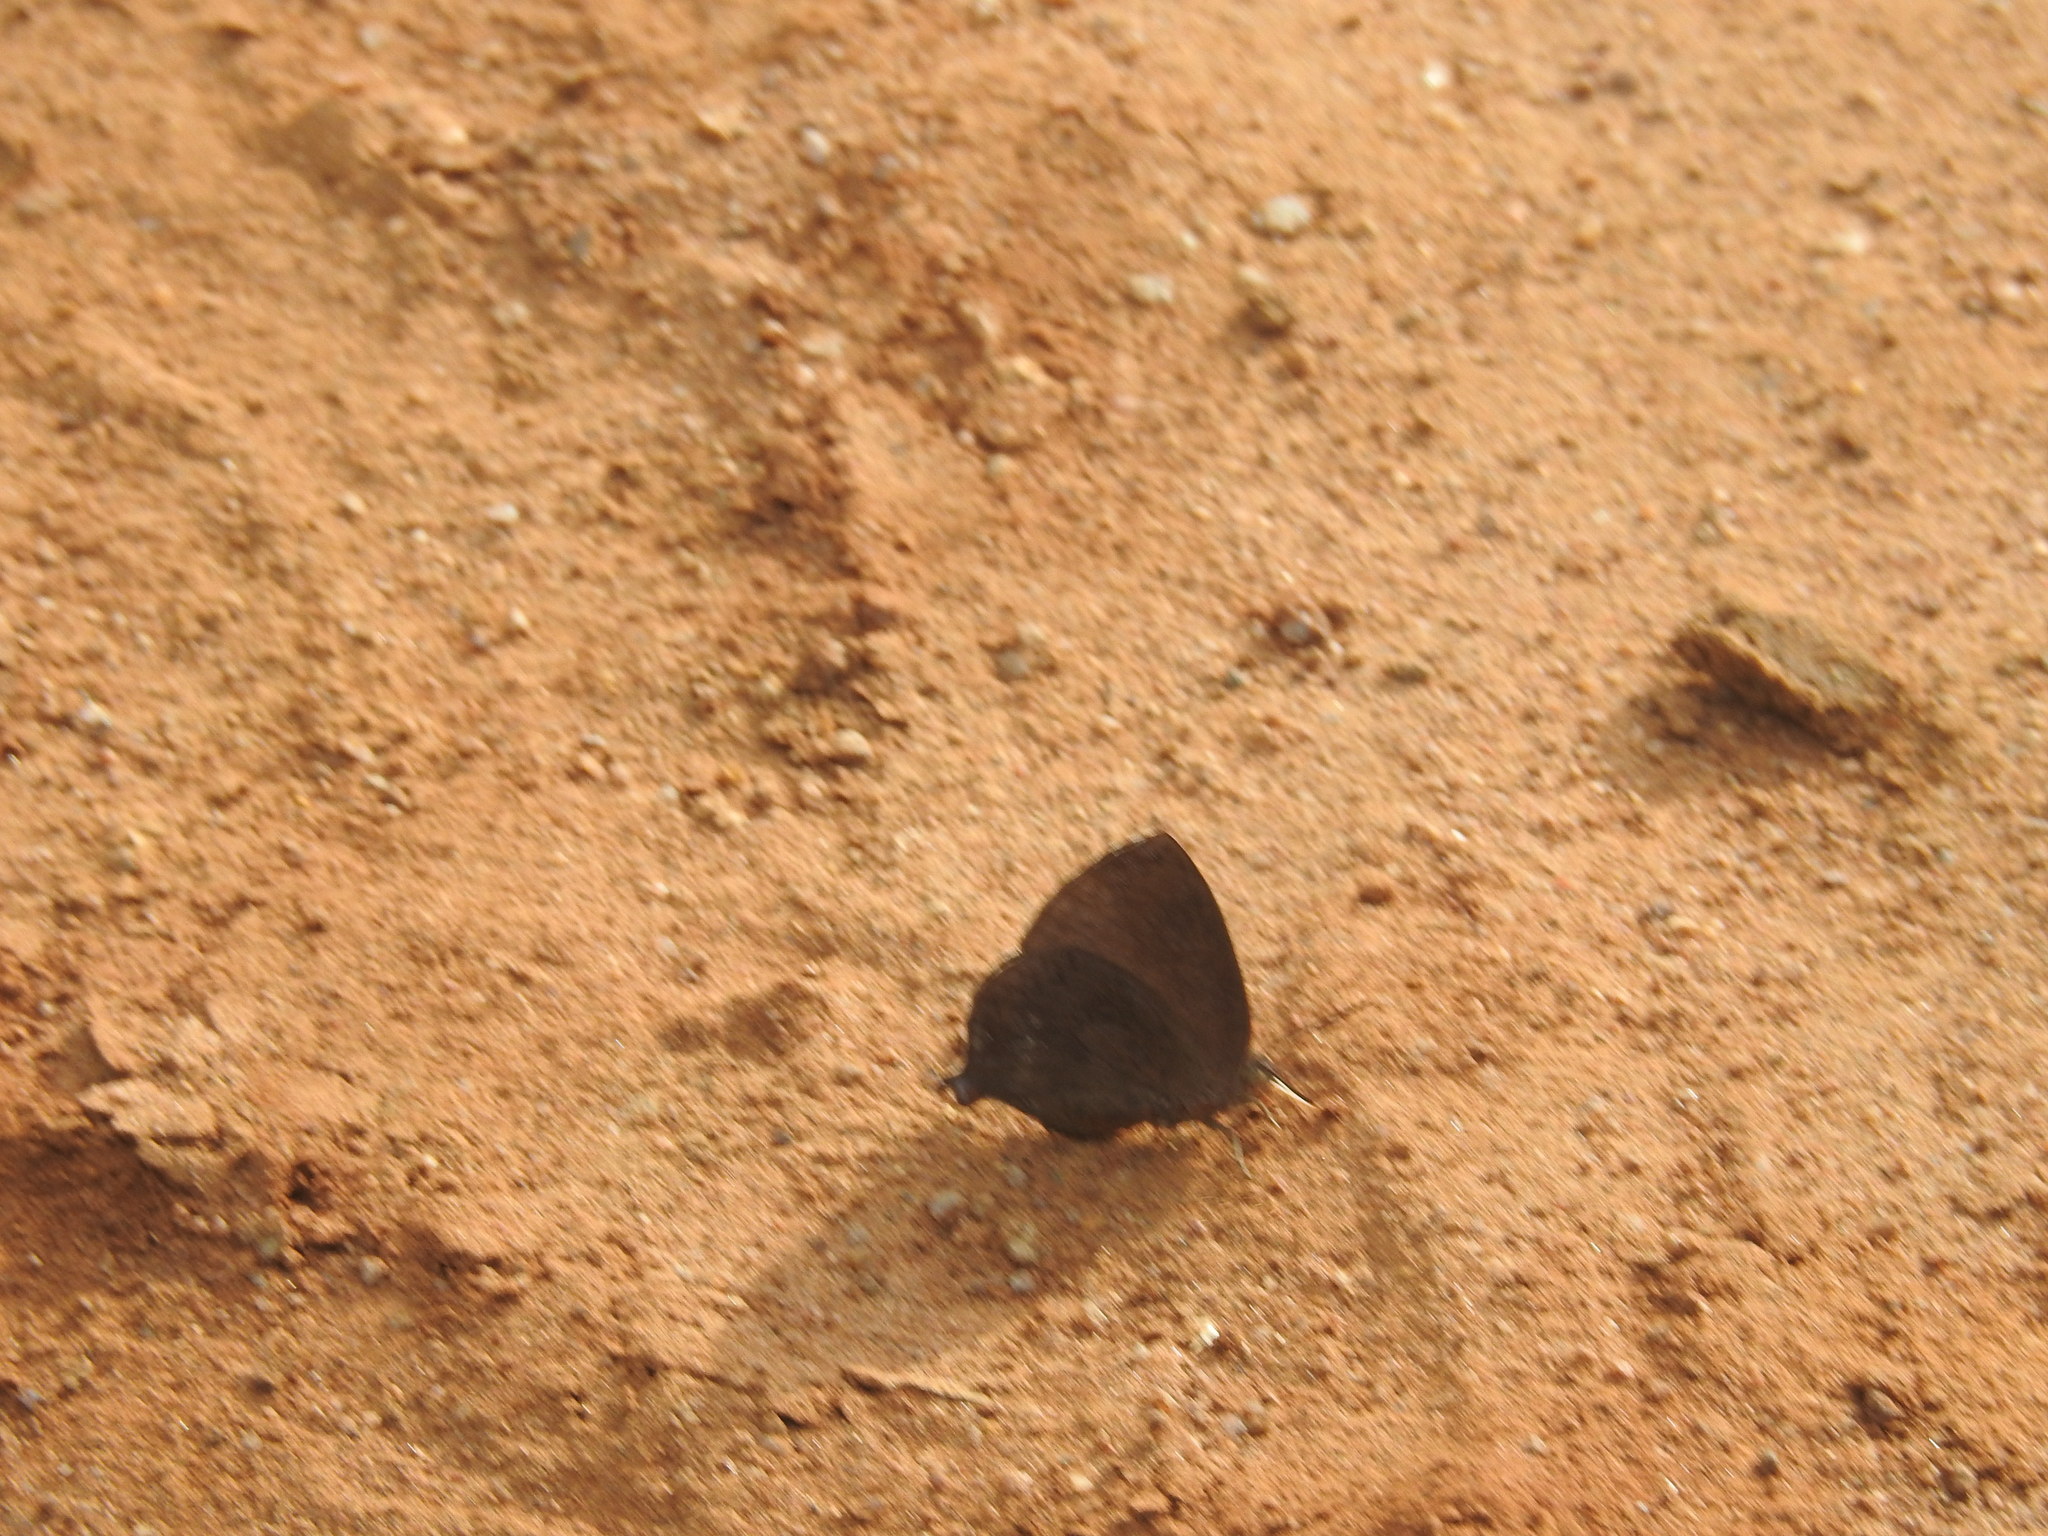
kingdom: Animalia
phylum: Arthropoda
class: Insecta
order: Lepidoptera
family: Lycaenidae
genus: Amblypodia
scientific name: Amblypodia anita
